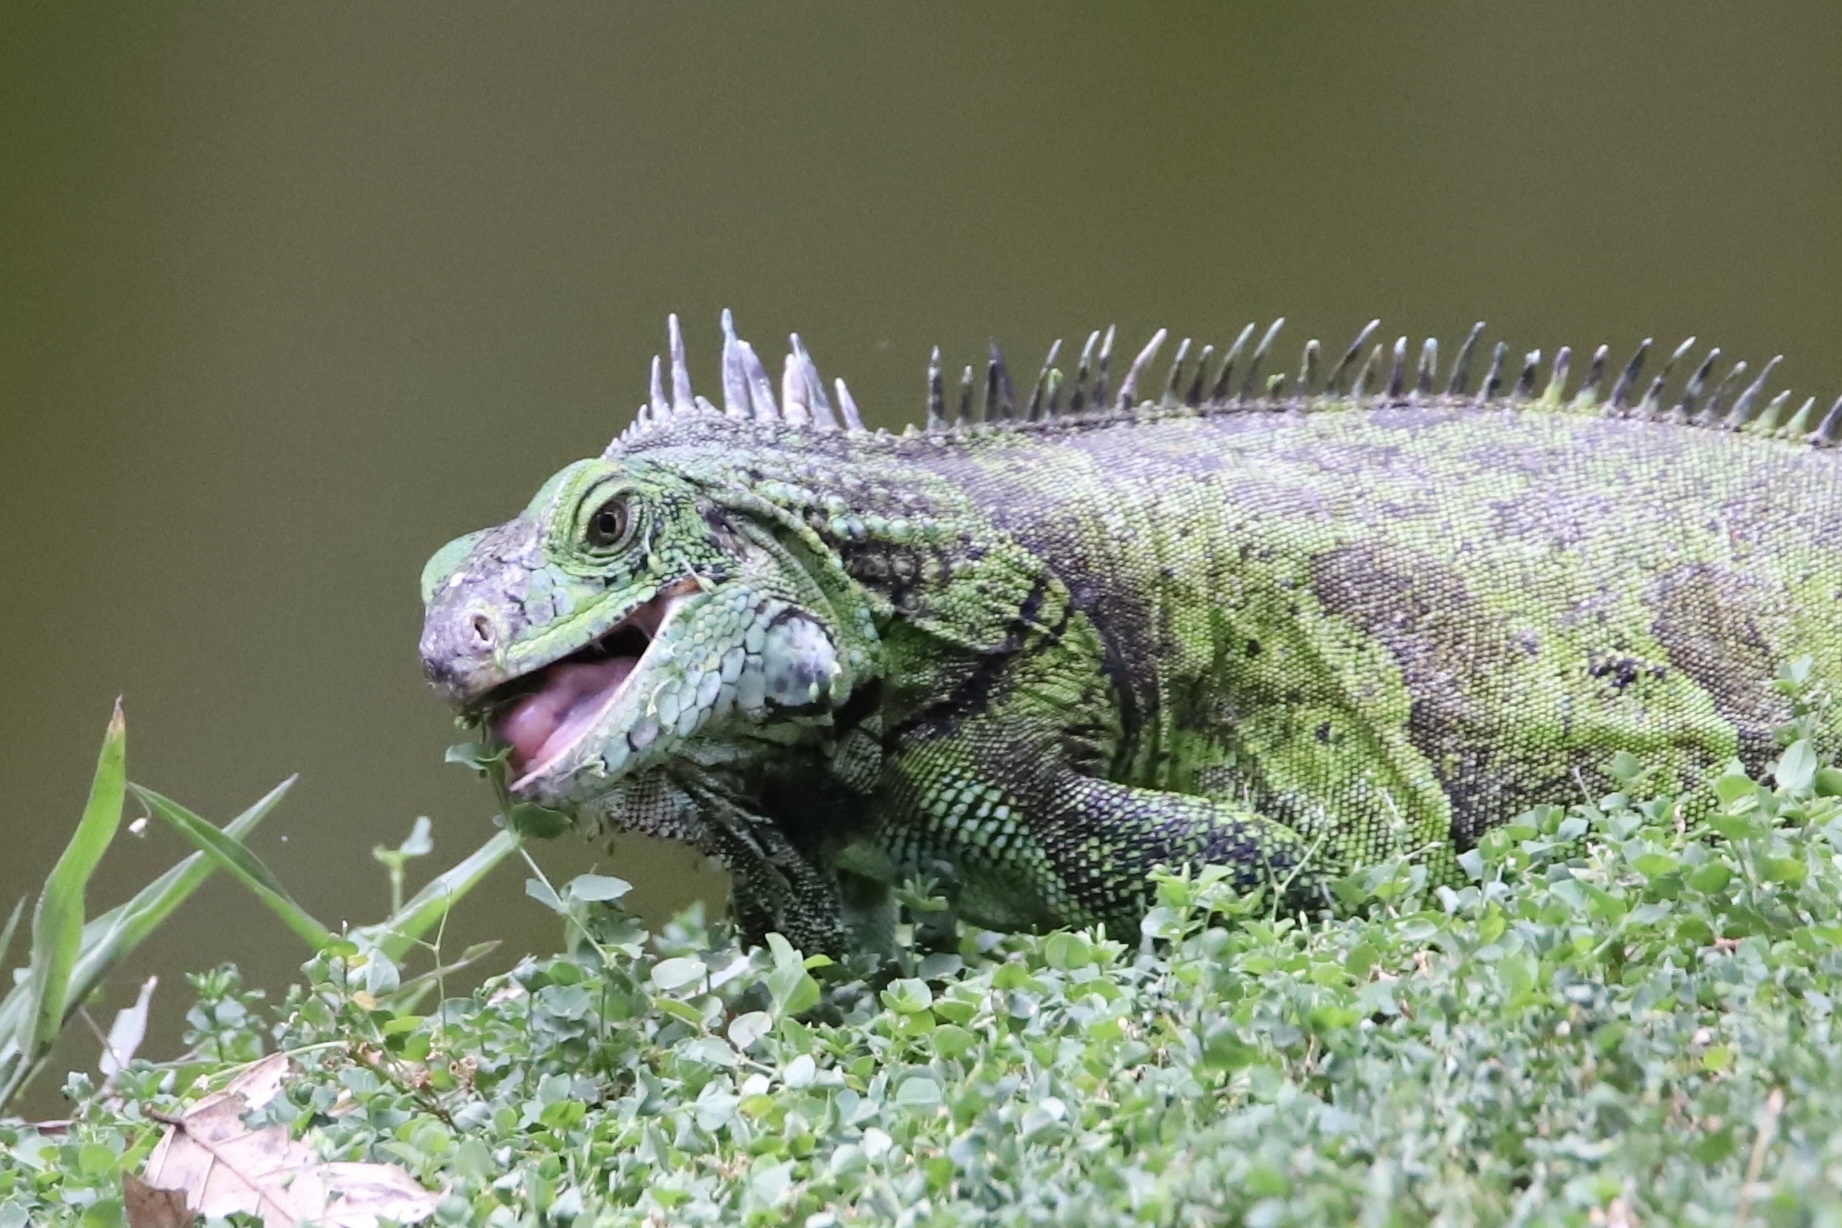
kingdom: Animalia
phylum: Chordata
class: Squamata
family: Iguanidae
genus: Iguana
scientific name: Iguana iguana
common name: Green iguana
